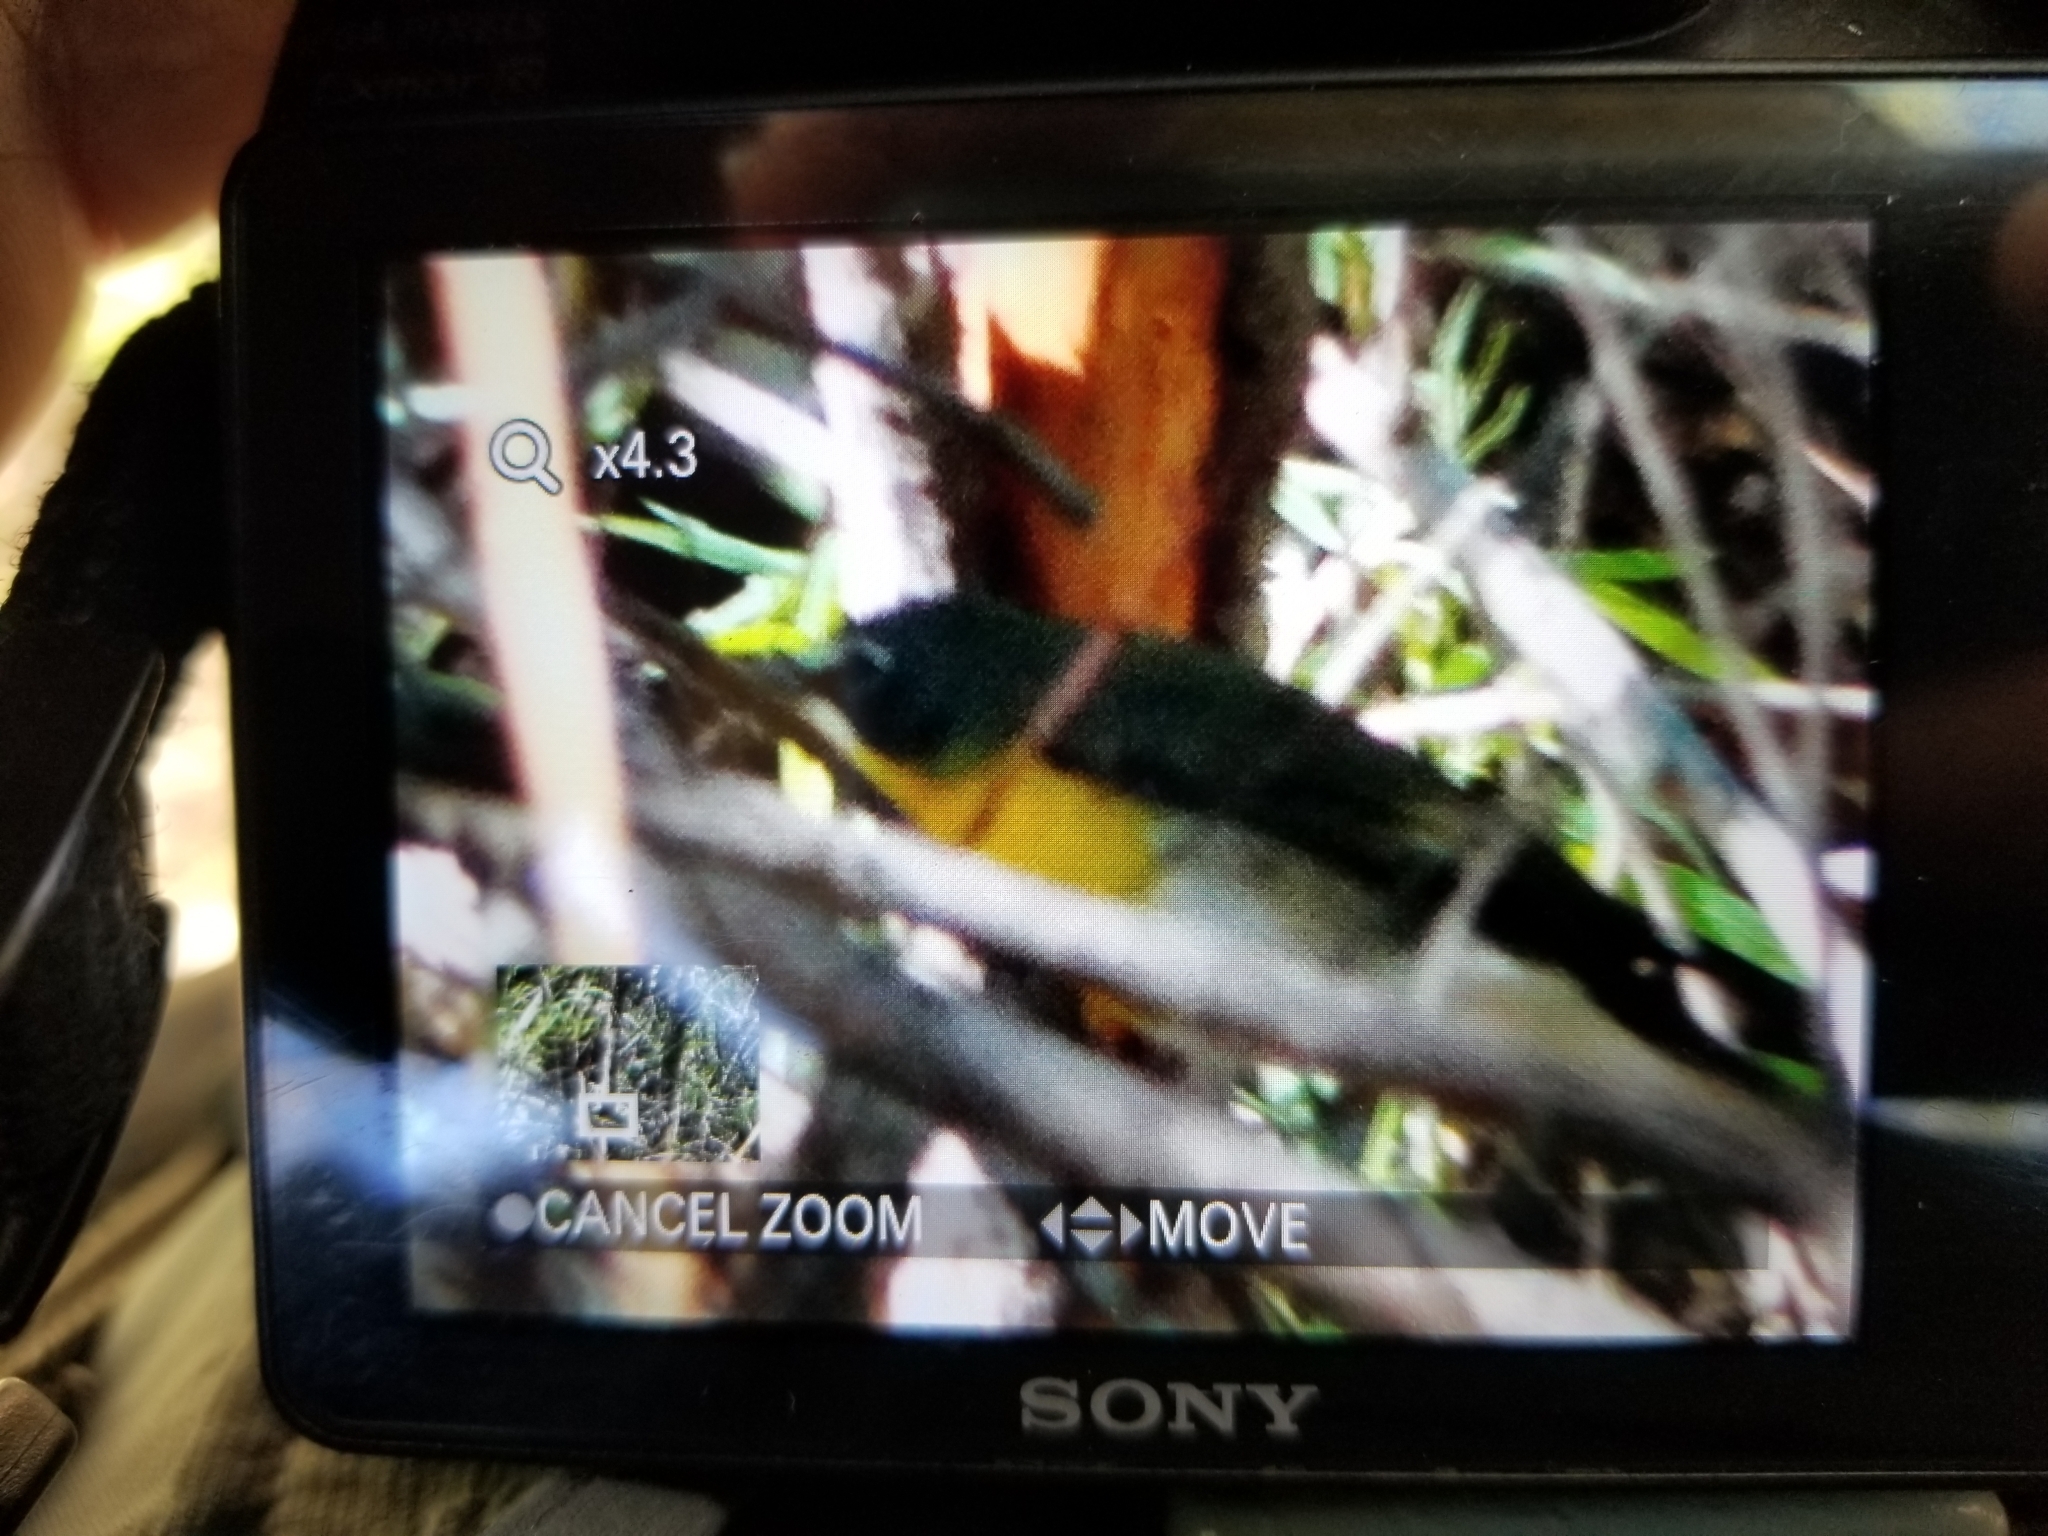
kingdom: Animalia
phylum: Chordata
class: Aves
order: Passeriformes
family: Parulidae
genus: Icteria
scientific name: Icteria virens
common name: Yellow-breasted chat
